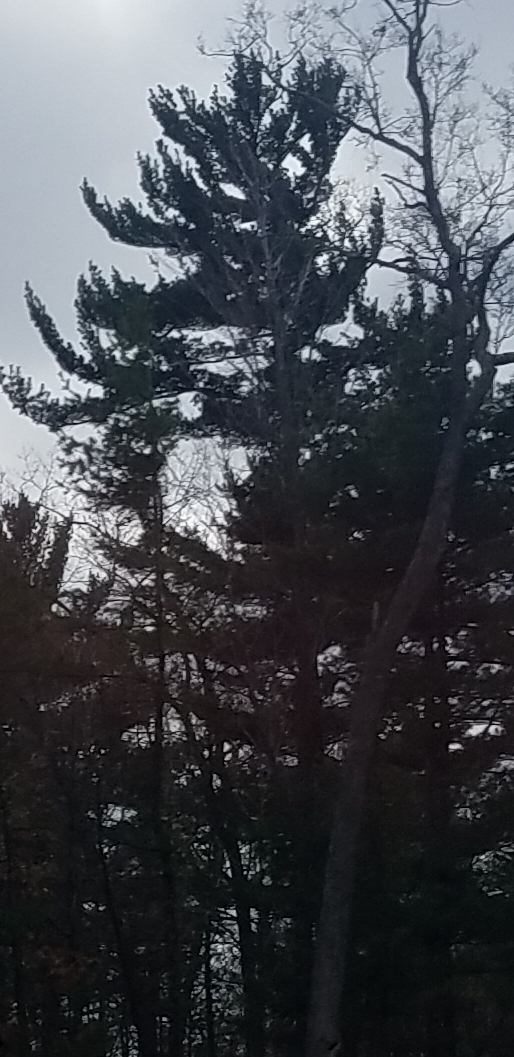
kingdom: Plantae
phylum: Tracheophyta
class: Pinopsida
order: Pinales
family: Pinaceae
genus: Pinus
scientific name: Pinus strobus
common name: Weymouth pine
